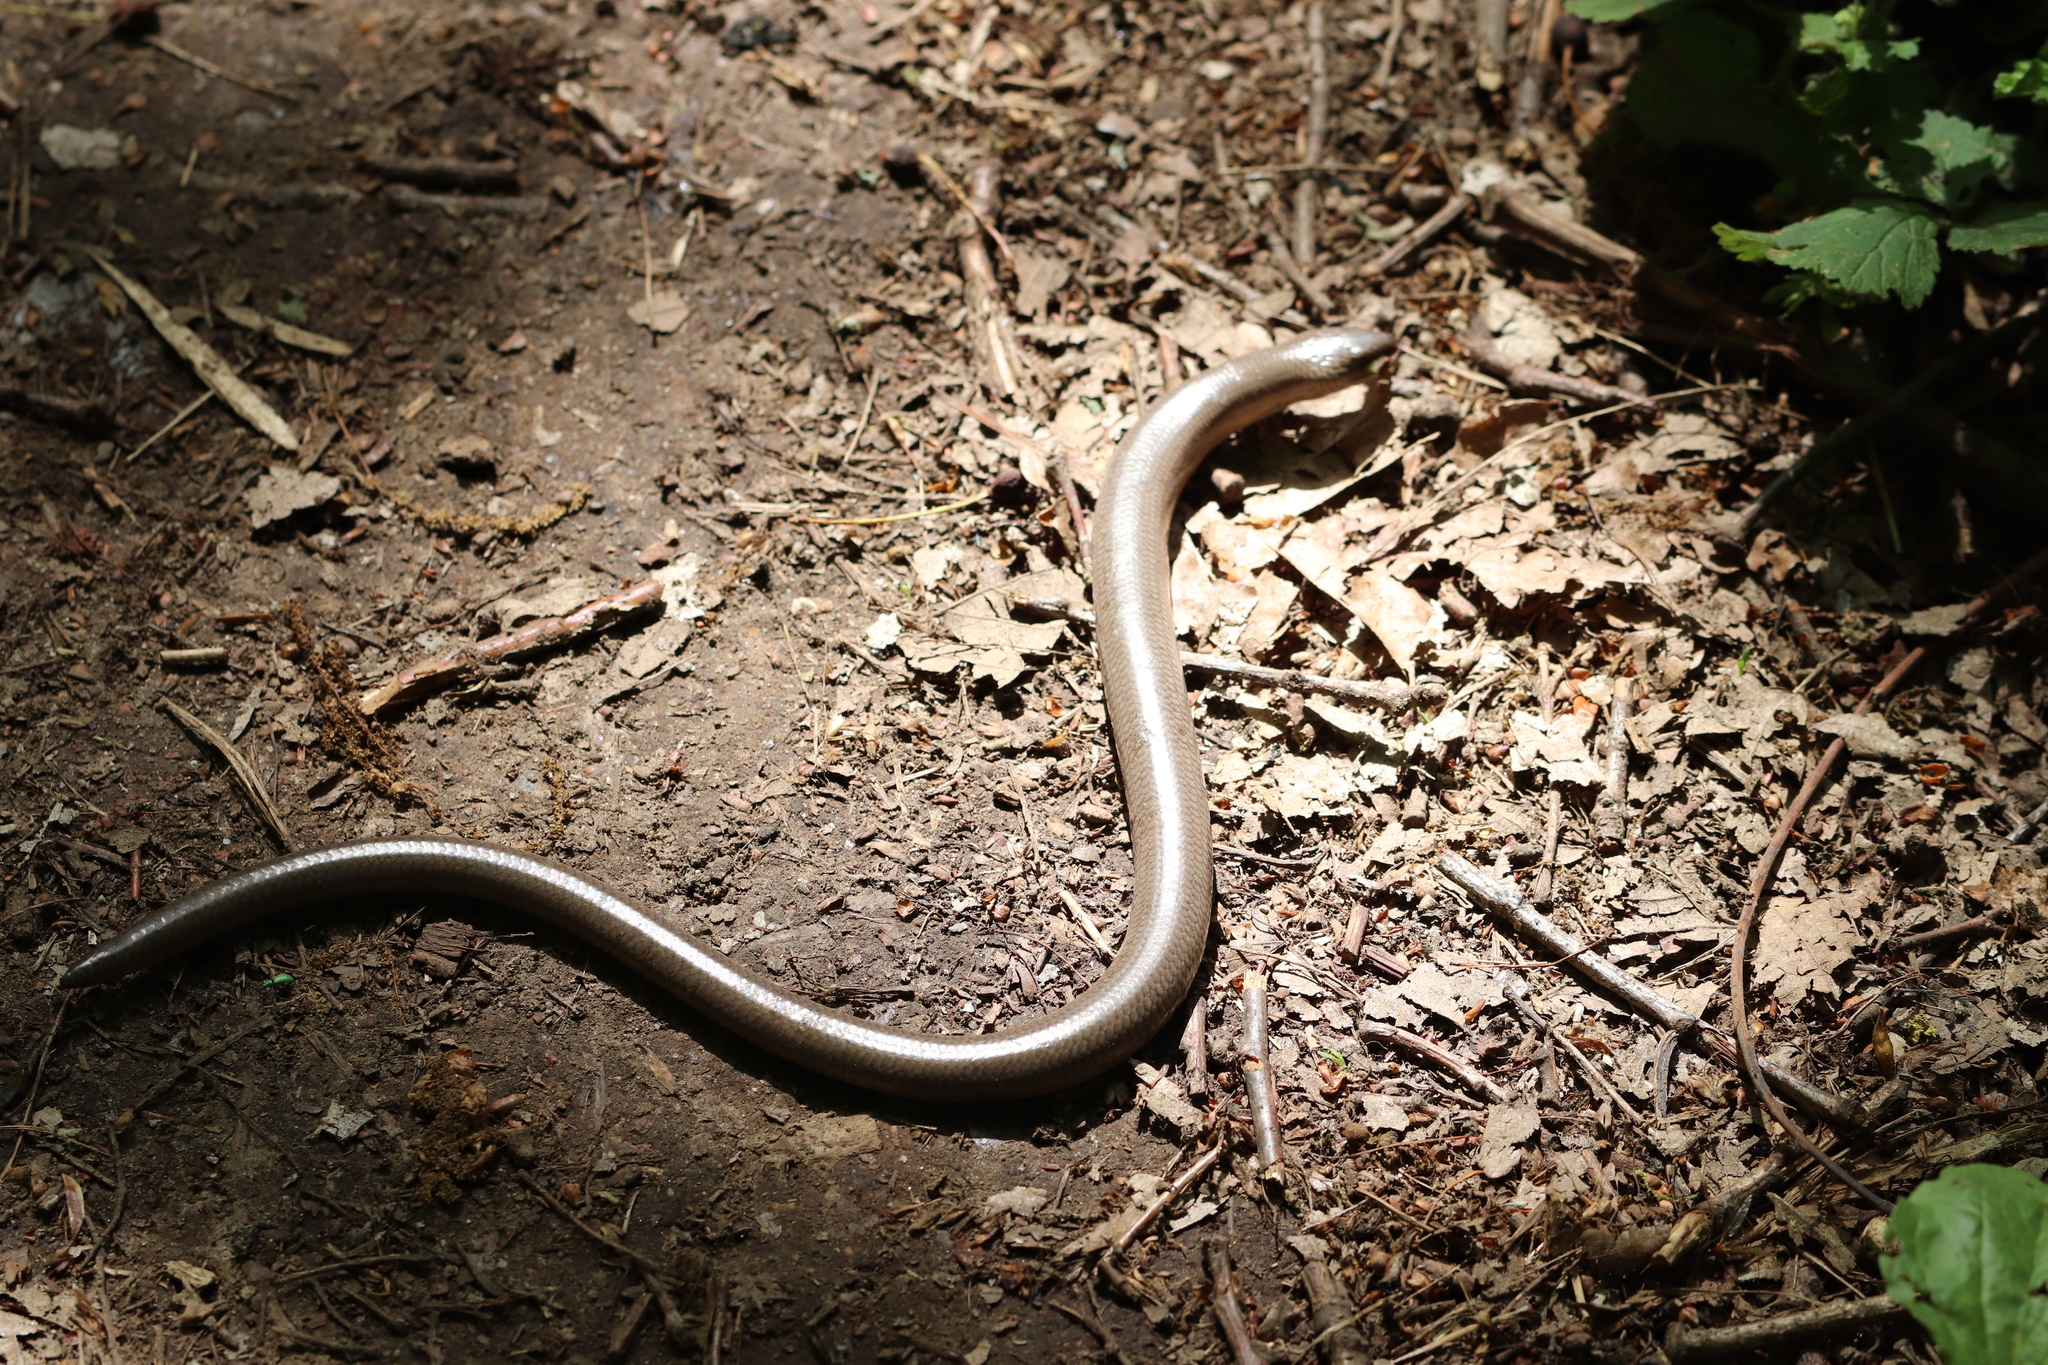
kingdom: Animalia
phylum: Chordata
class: Squamata
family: Anguidae
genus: Anguis
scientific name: Anguis fragilis
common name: Slow worm
